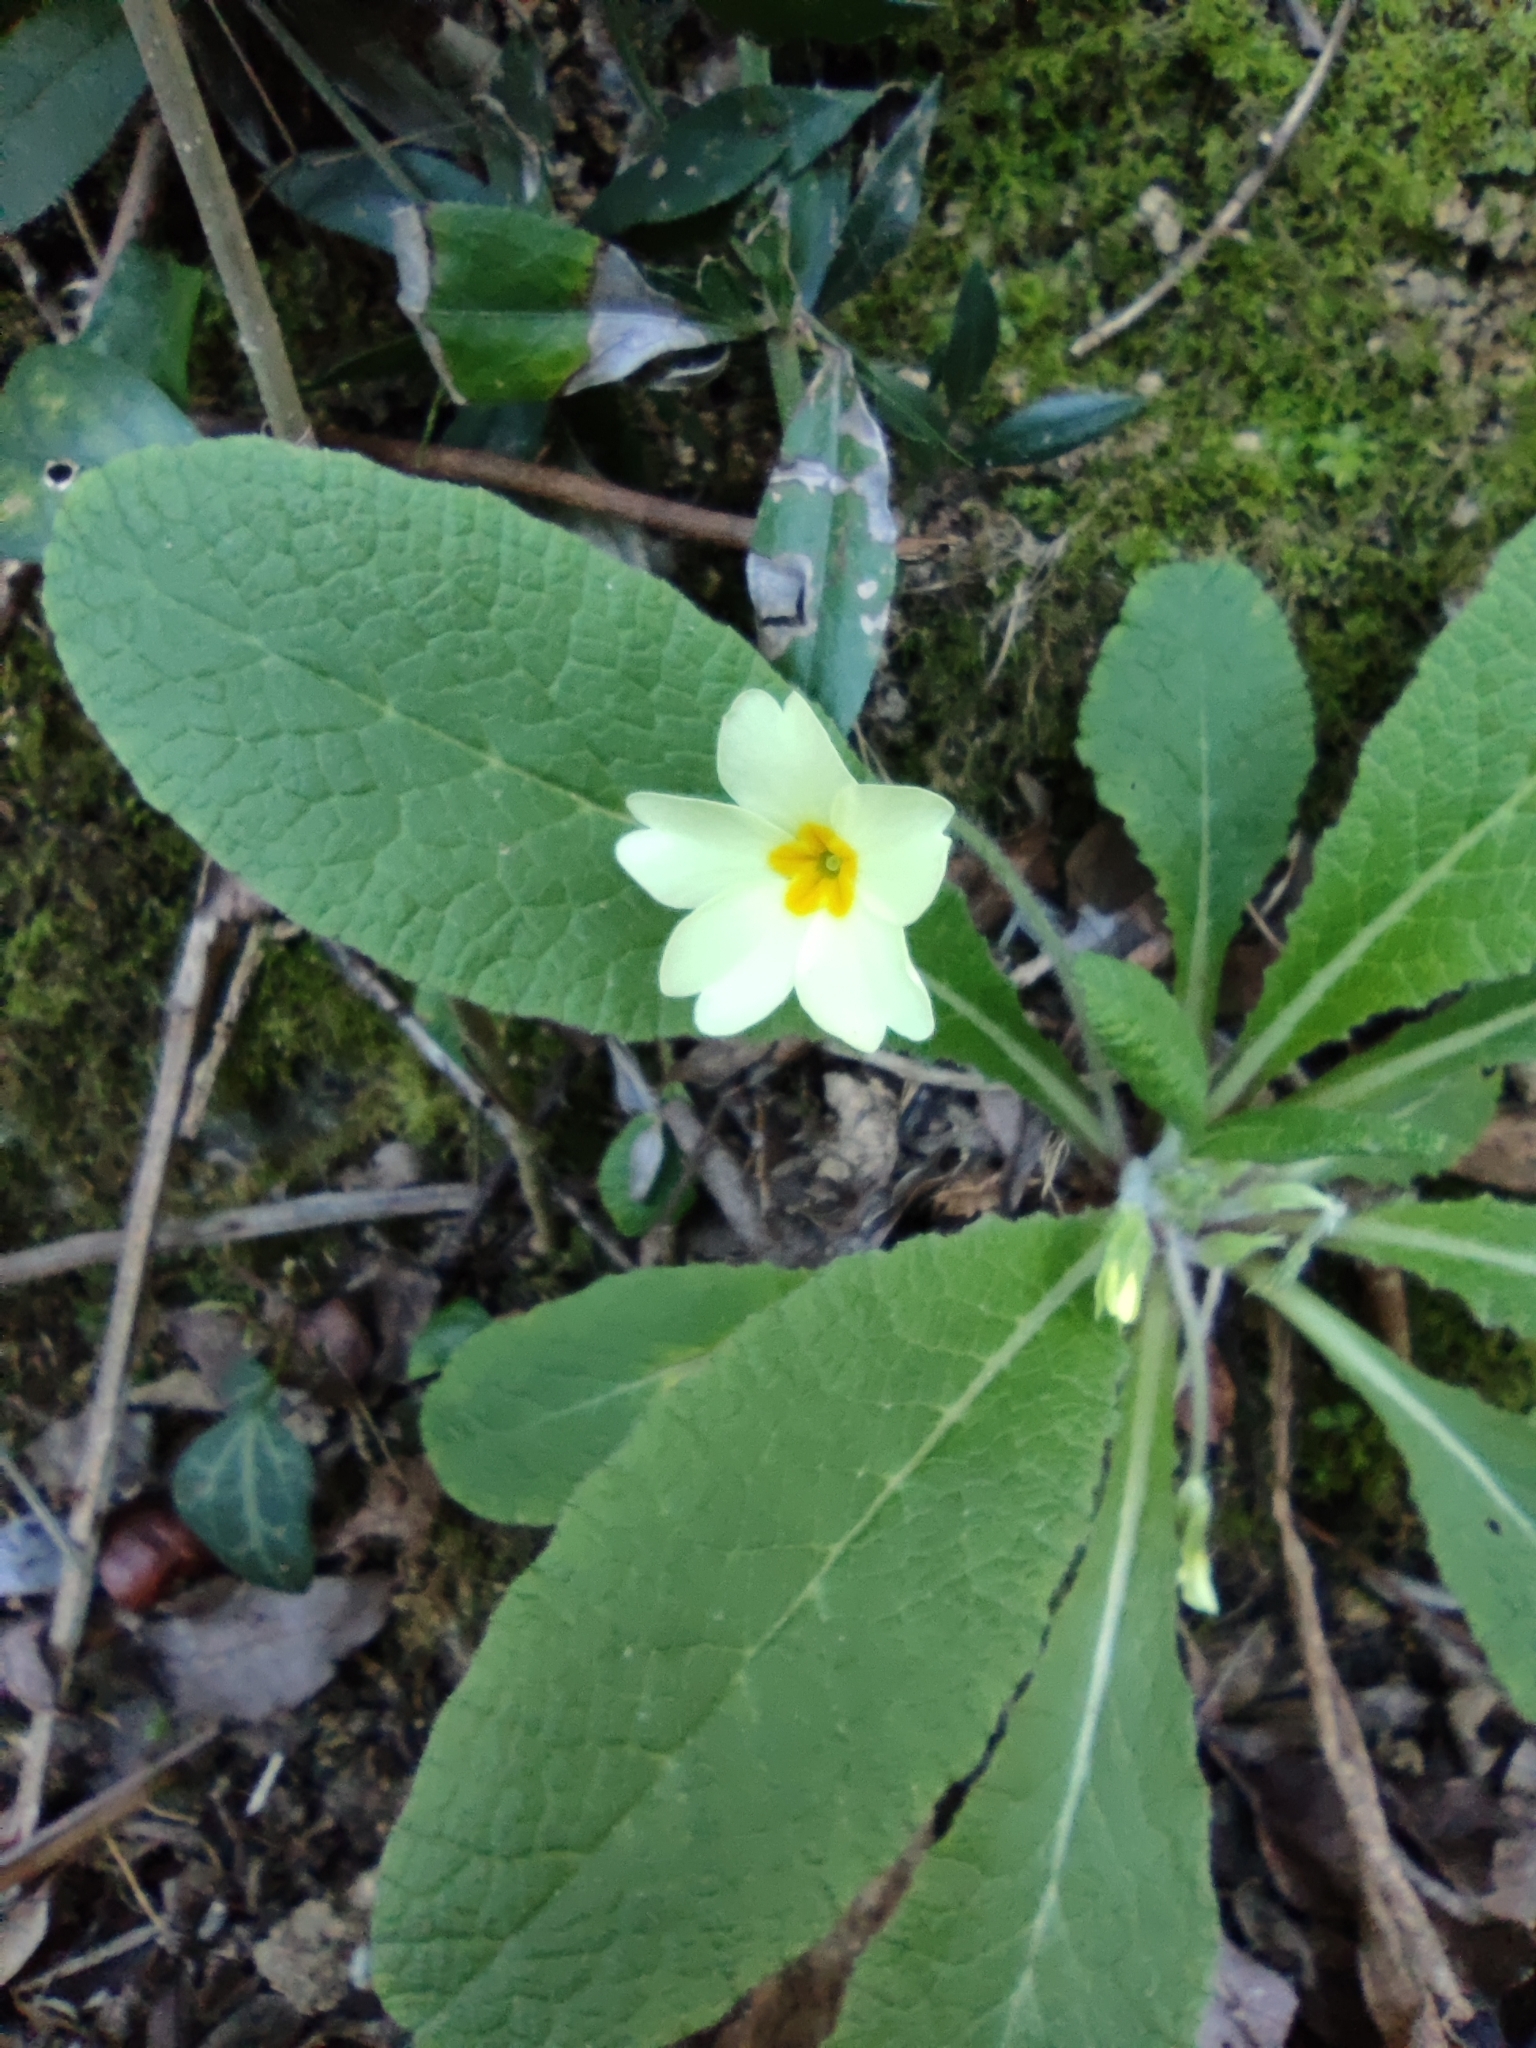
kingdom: Plantae
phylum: Tracheophyta
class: Magnoliopsida
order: Ericales
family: Primulaceae
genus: Primula
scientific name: Primula vulgaris
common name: Primrose
